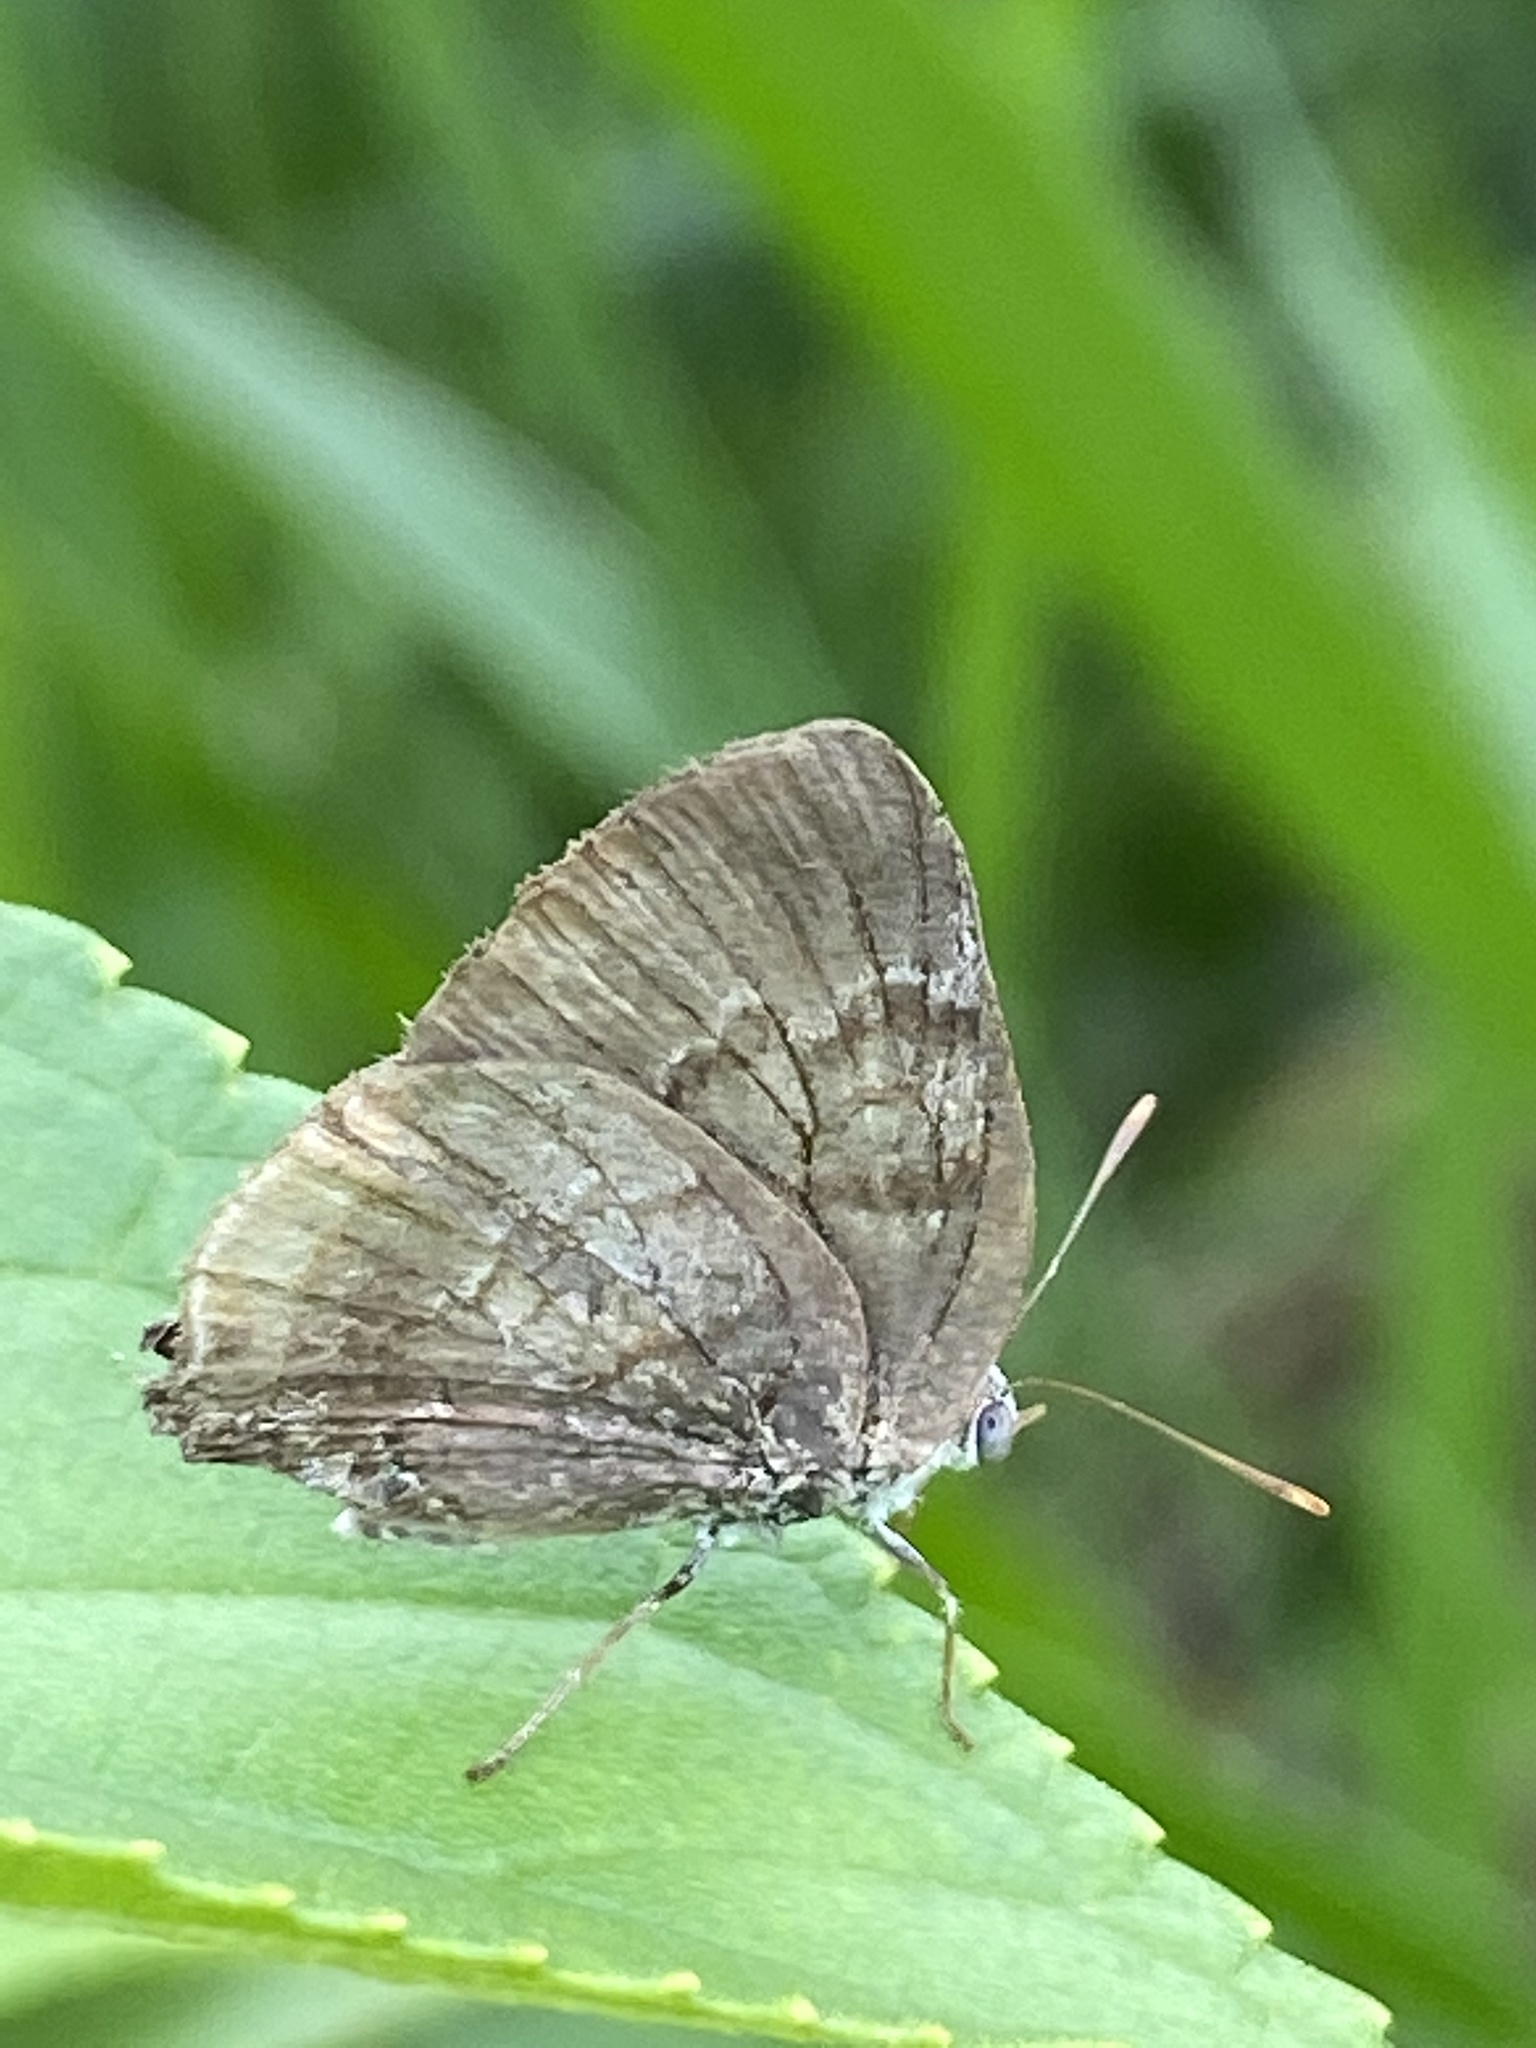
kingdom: Animalia
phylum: Arthropoda
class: Insecta
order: Lepidoptera
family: Lycaenidae
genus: Rekoa
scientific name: Rekoa palegon
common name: Gold-bordered hairstreak
